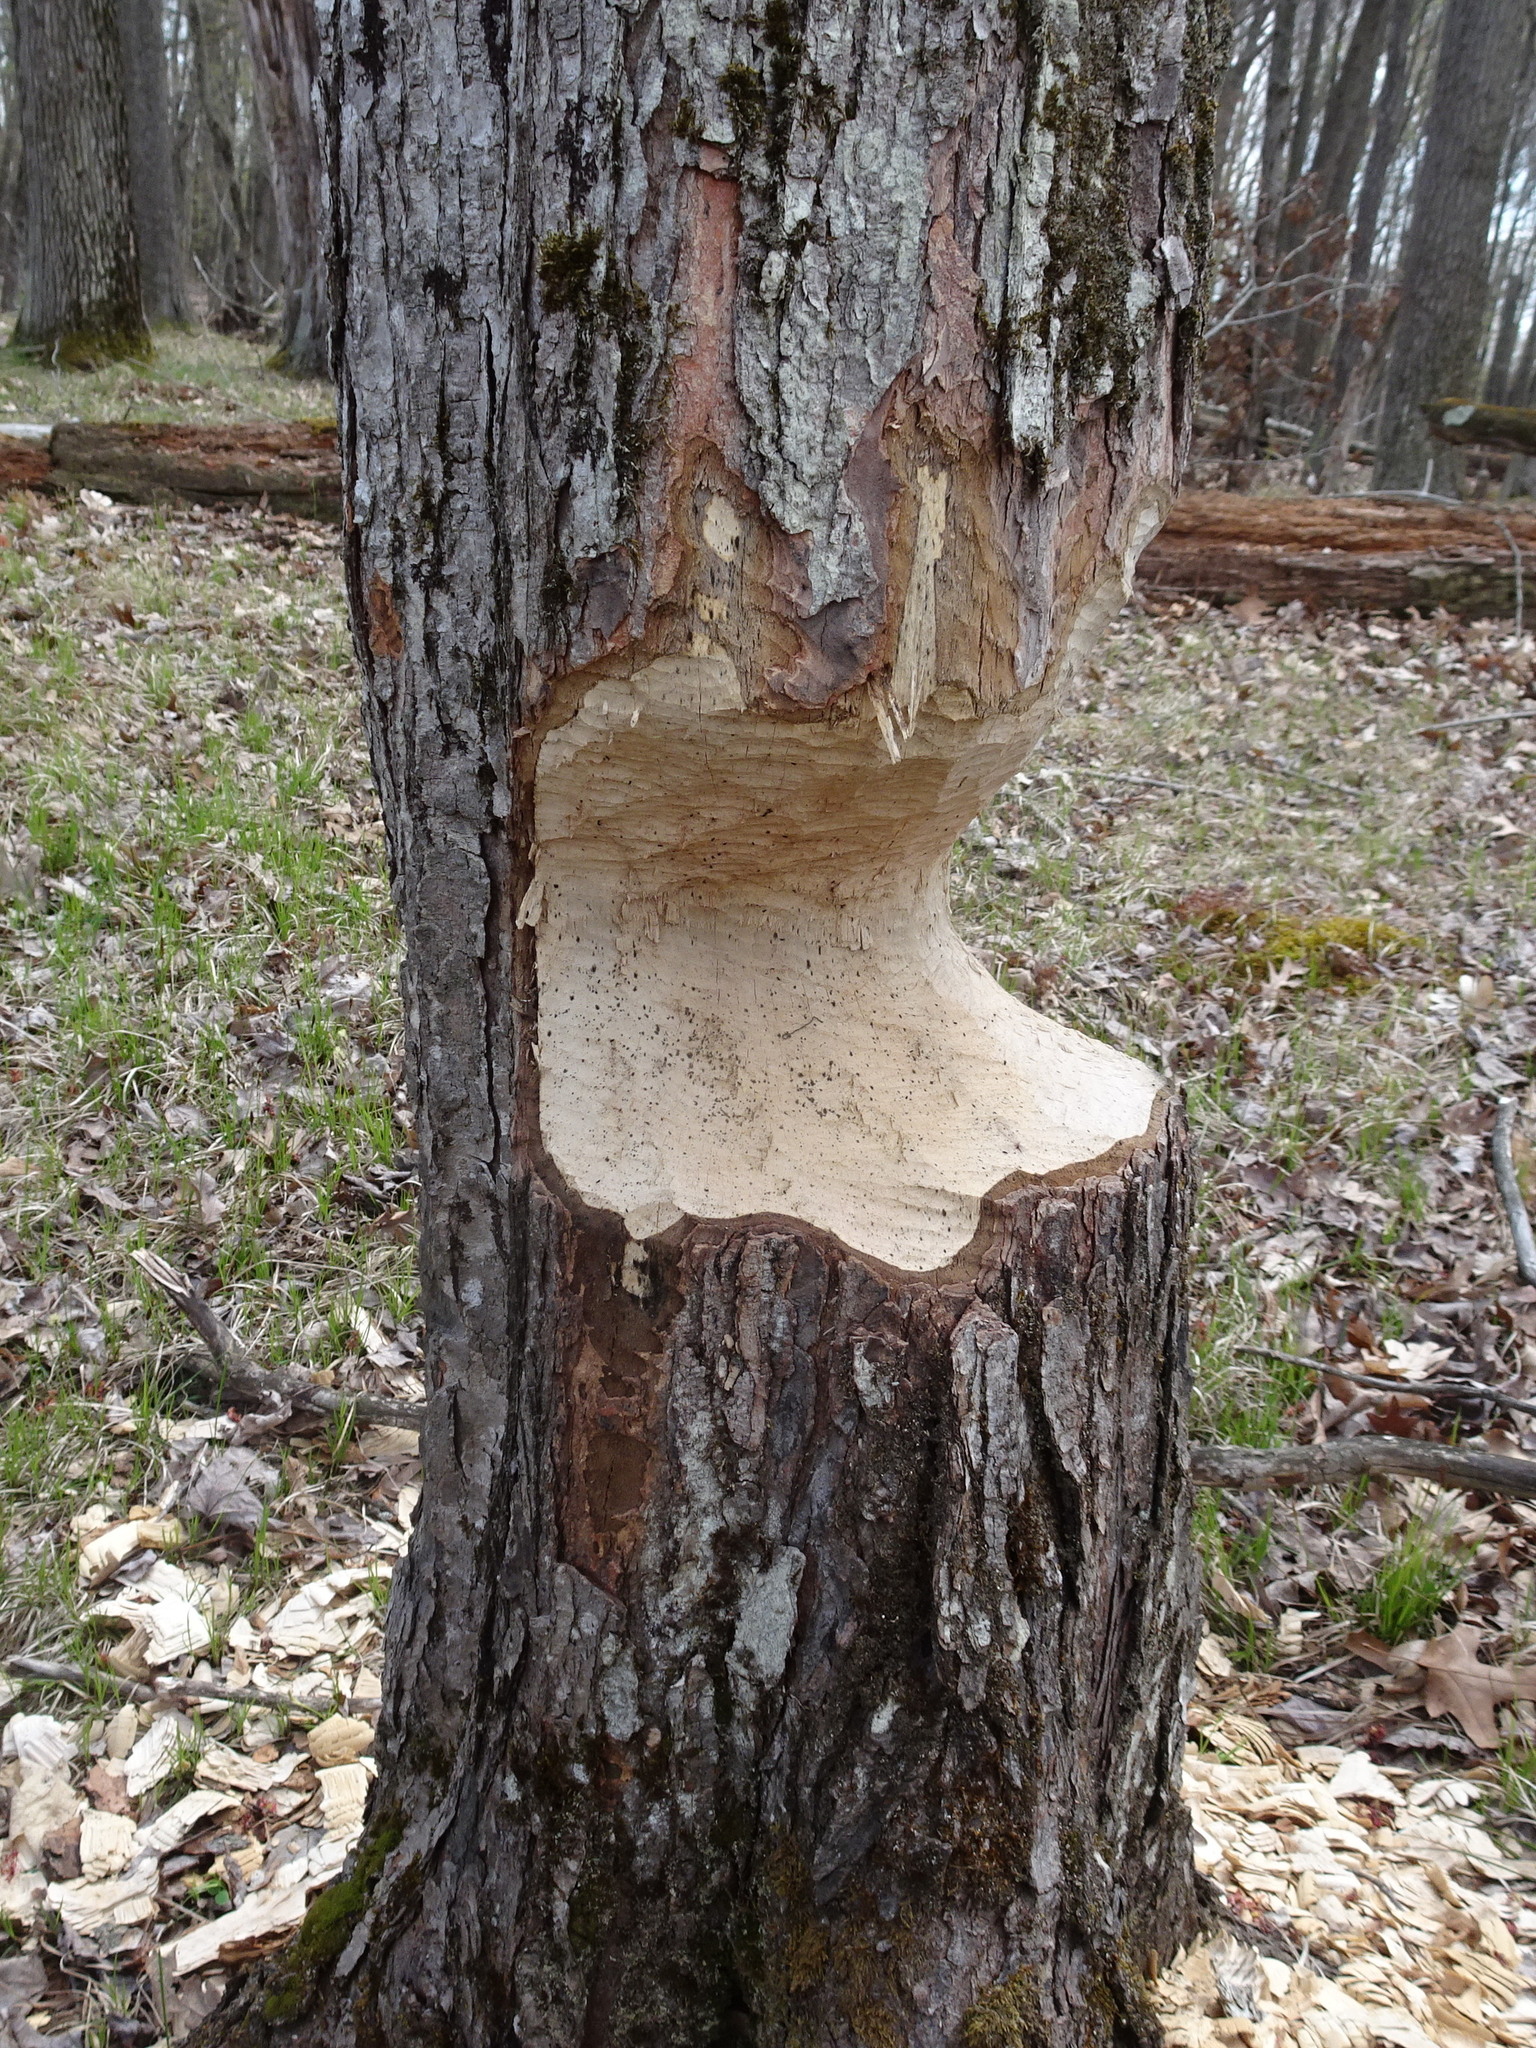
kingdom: Animalia
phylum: Chordata
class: Mammalia
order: Rodentia
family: Castoridae
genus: Castor
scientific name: Castor canadensis
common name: American beaver
